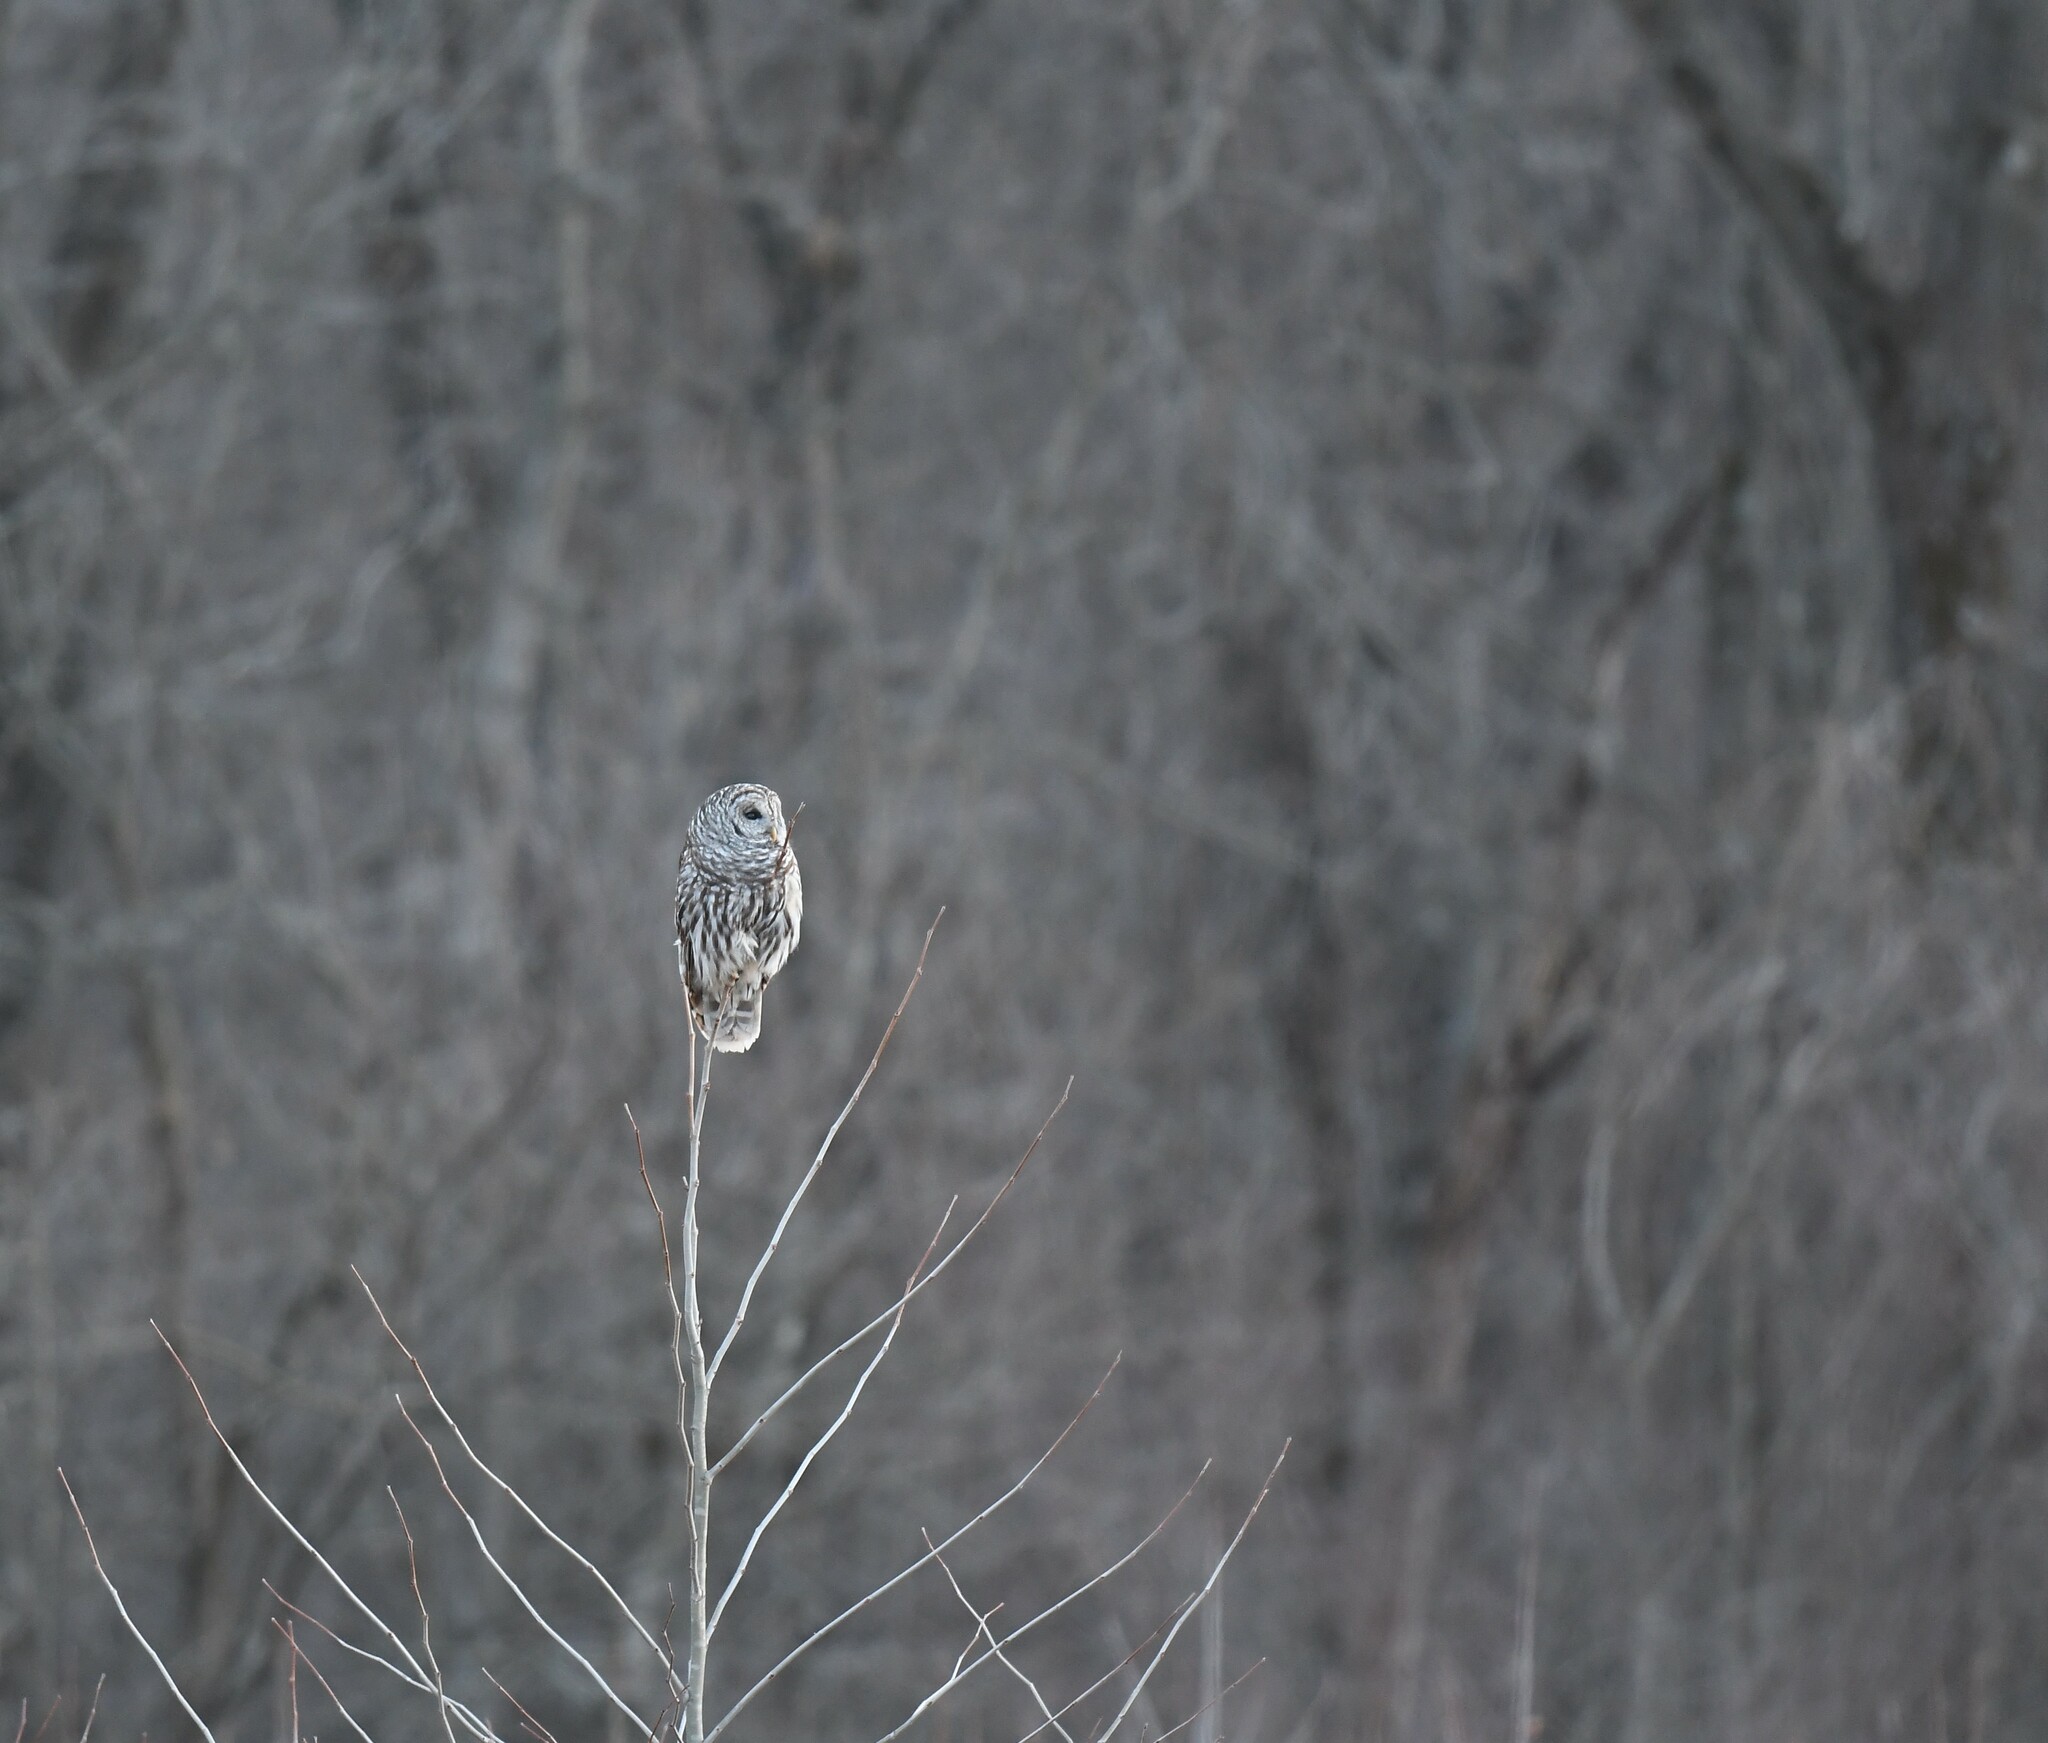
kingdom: Animalia
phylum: Chordata
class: Aves
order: Strigiformes
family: Strigidae
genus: Strix
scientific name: Strix varia
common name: Barred owl
